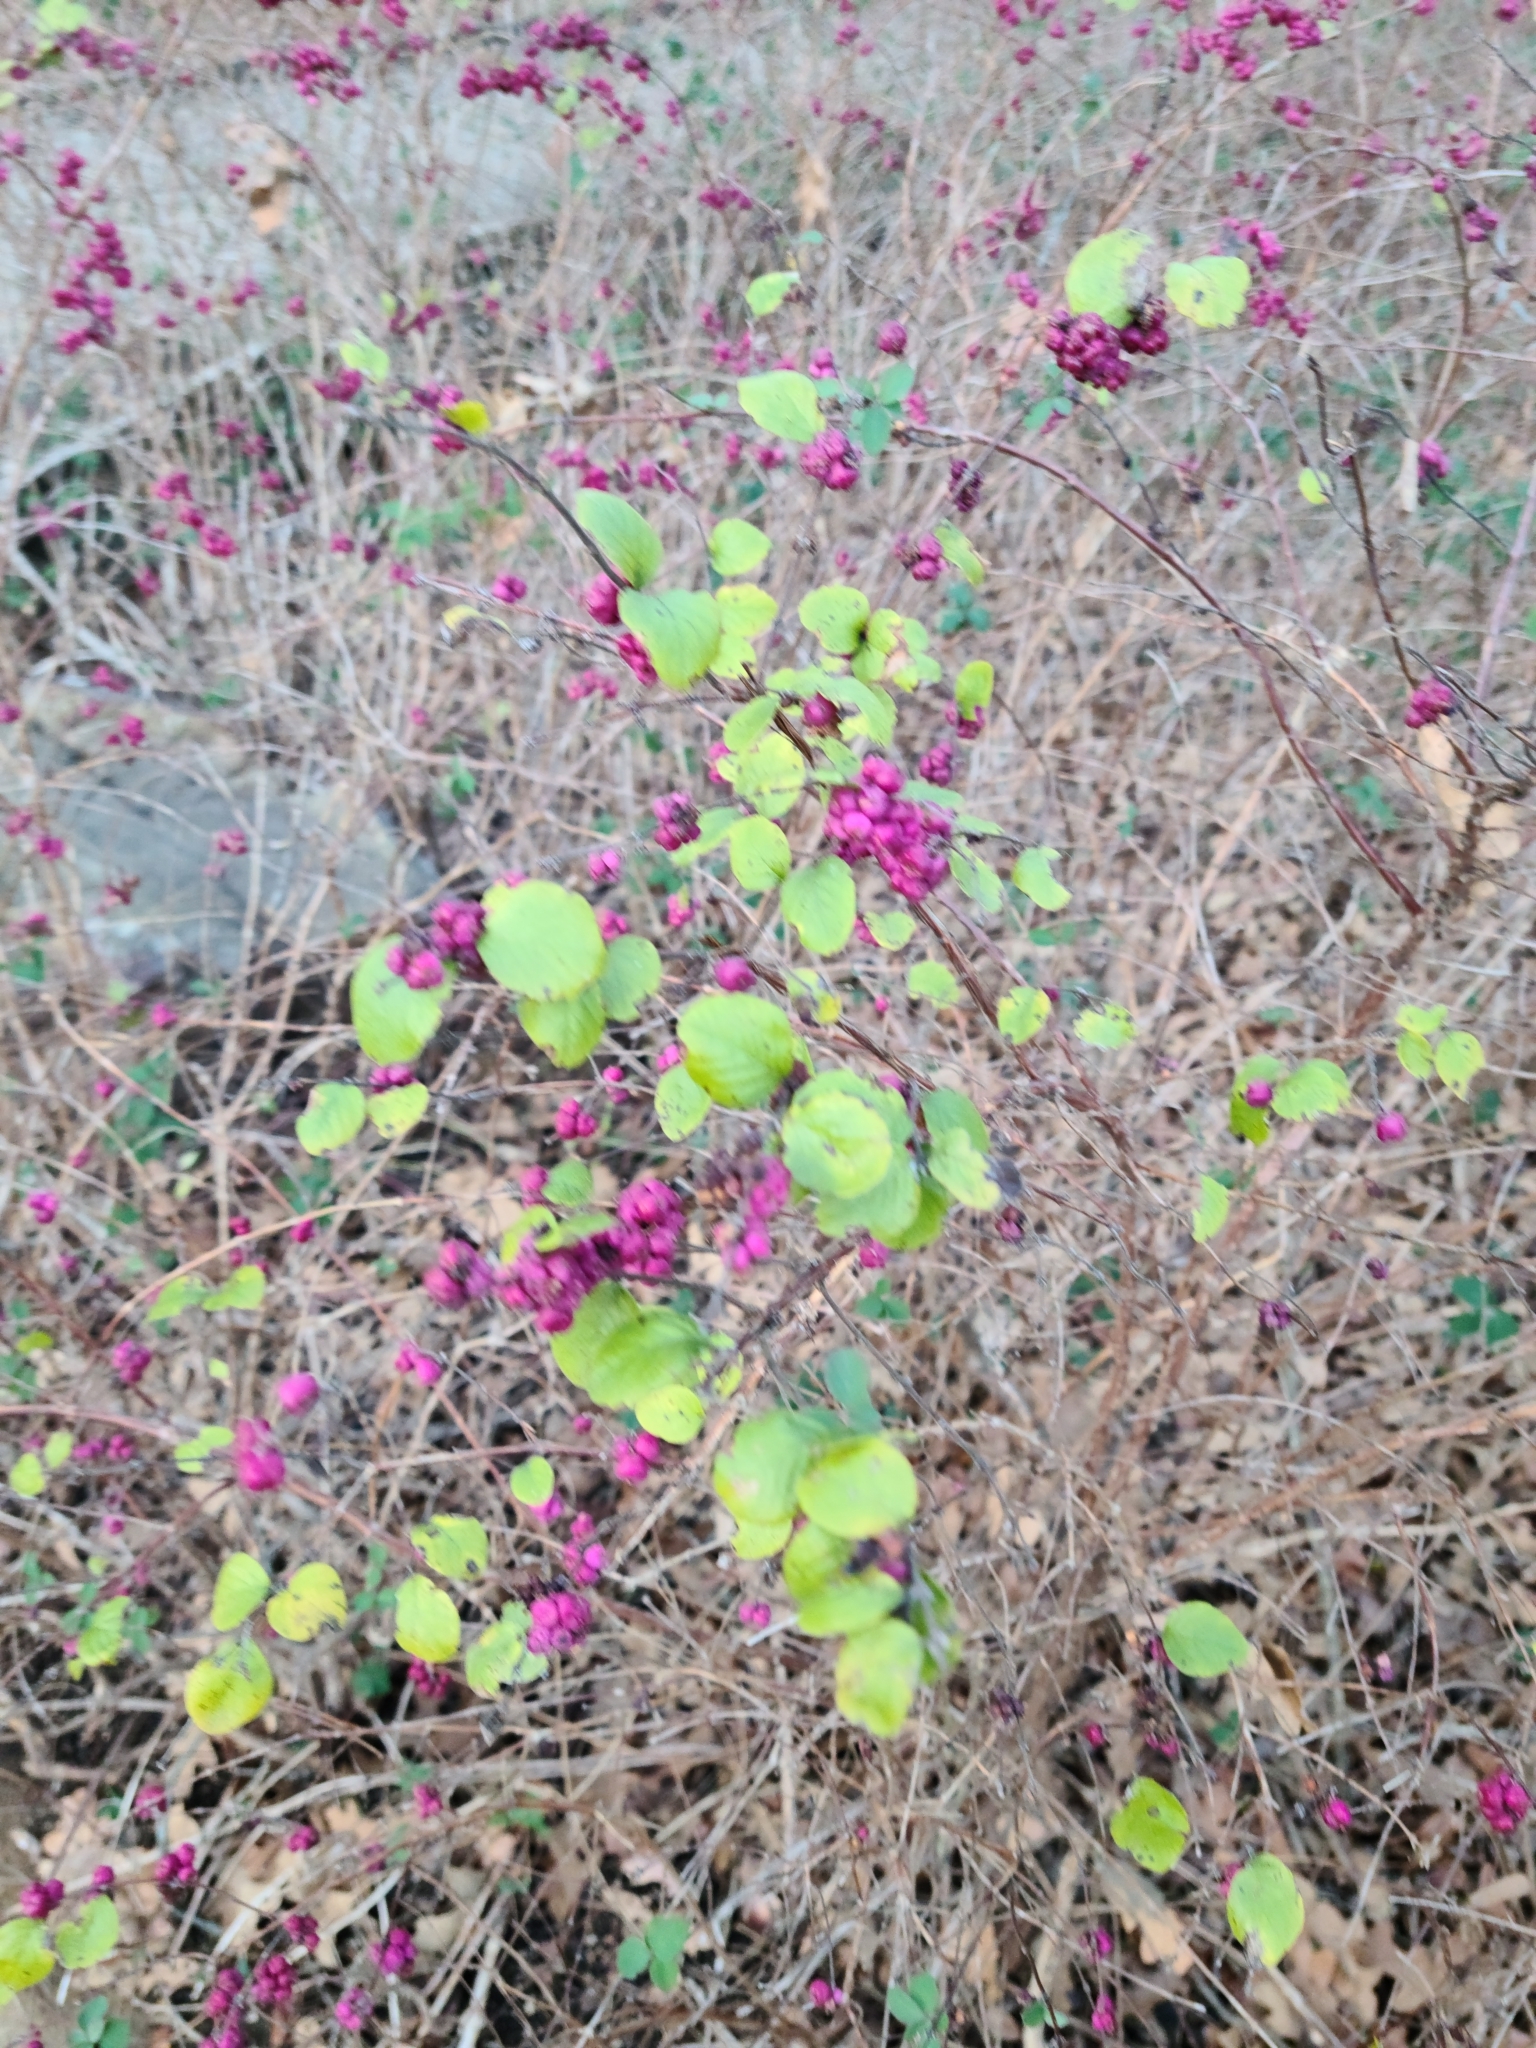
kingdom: Plantae
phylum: Tracheophyta
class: Magnoliopsida
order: Dipsacales
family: Caprifoliaceae
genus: Symphoricarpos
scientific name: Symphoricarpos orbiculatus
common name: Coralberry
